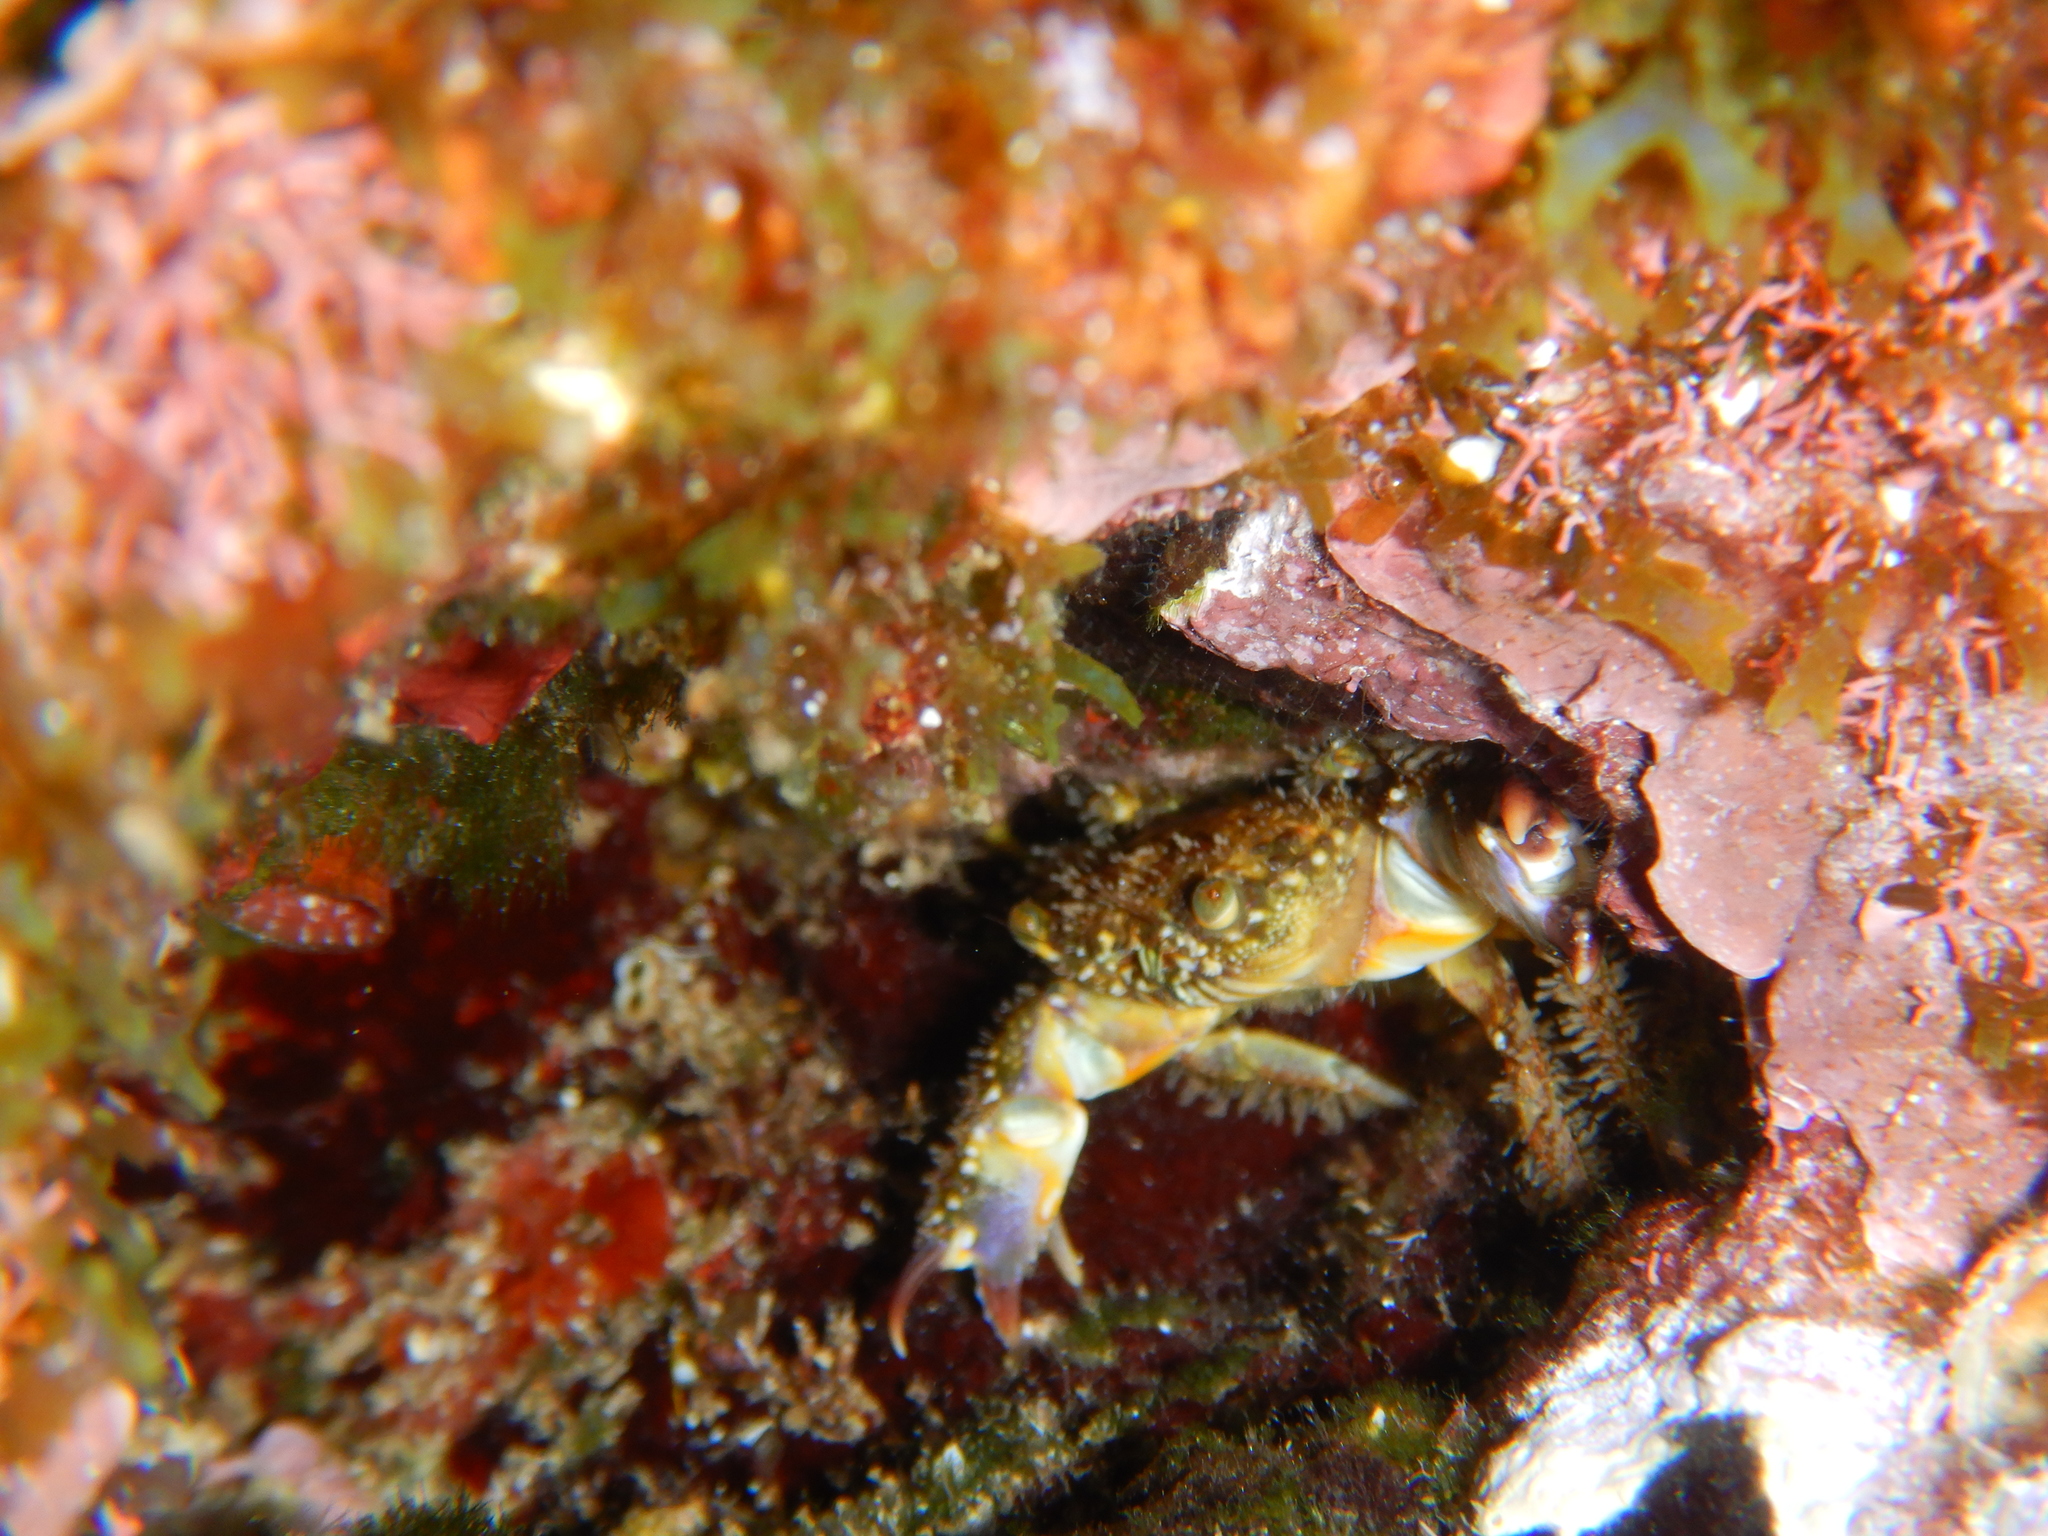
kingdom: Animalia
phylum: Arthropoda
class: Malacostraca
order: Decapoda
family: Eriphiidae
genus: Eriphia
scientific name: Eriphia verrucosa
